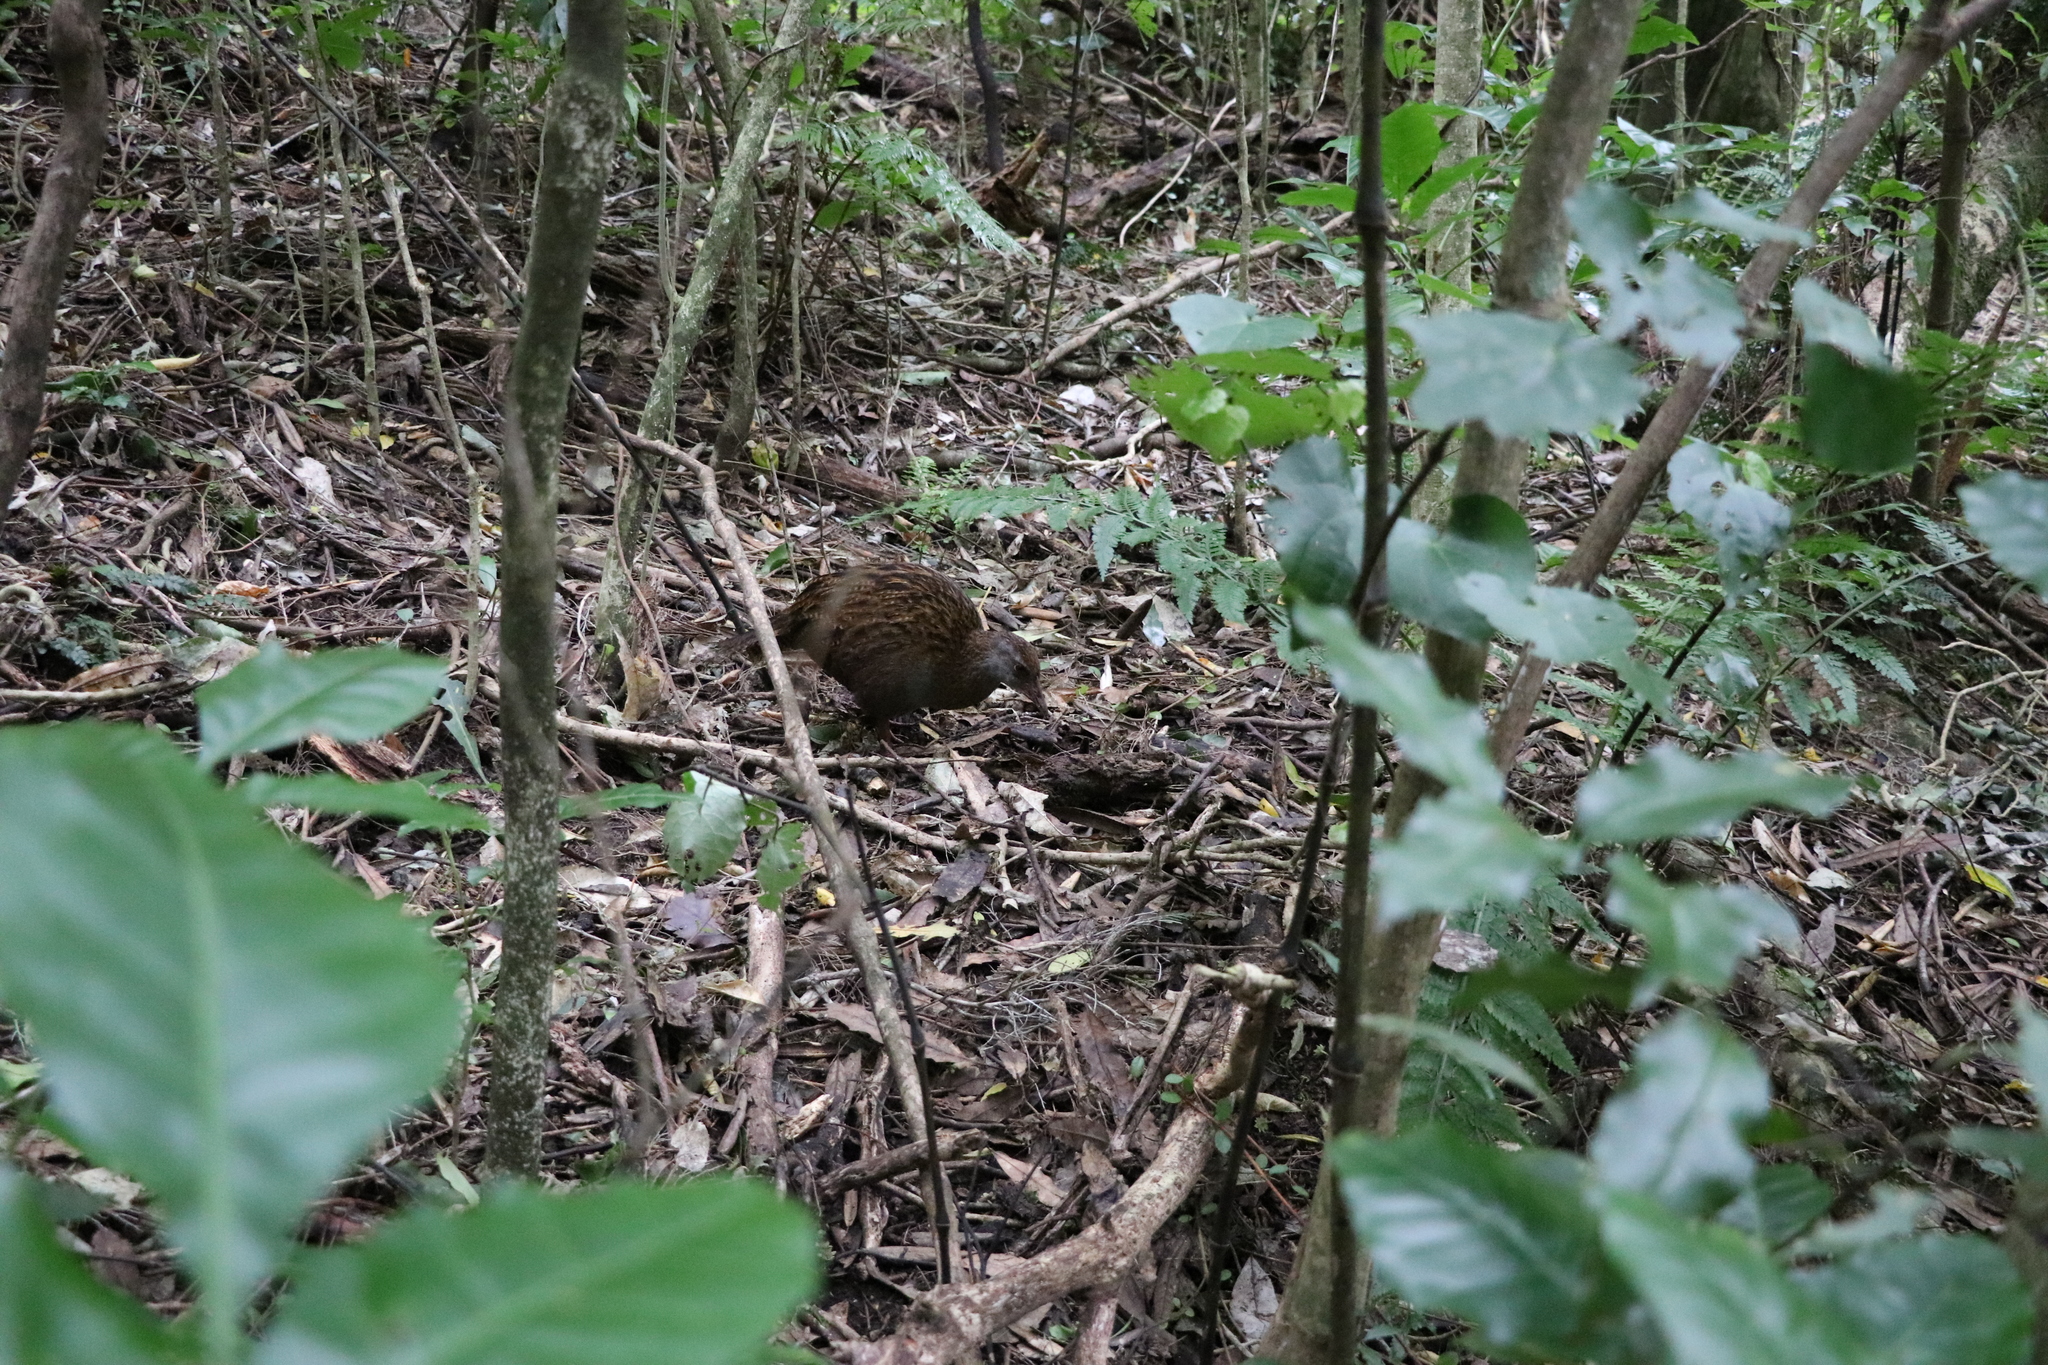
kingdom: Animalia
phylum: Chordata
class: Aves
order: Gruiformes
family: Rallidae
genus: Gallirallus
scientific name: Gallirallus
